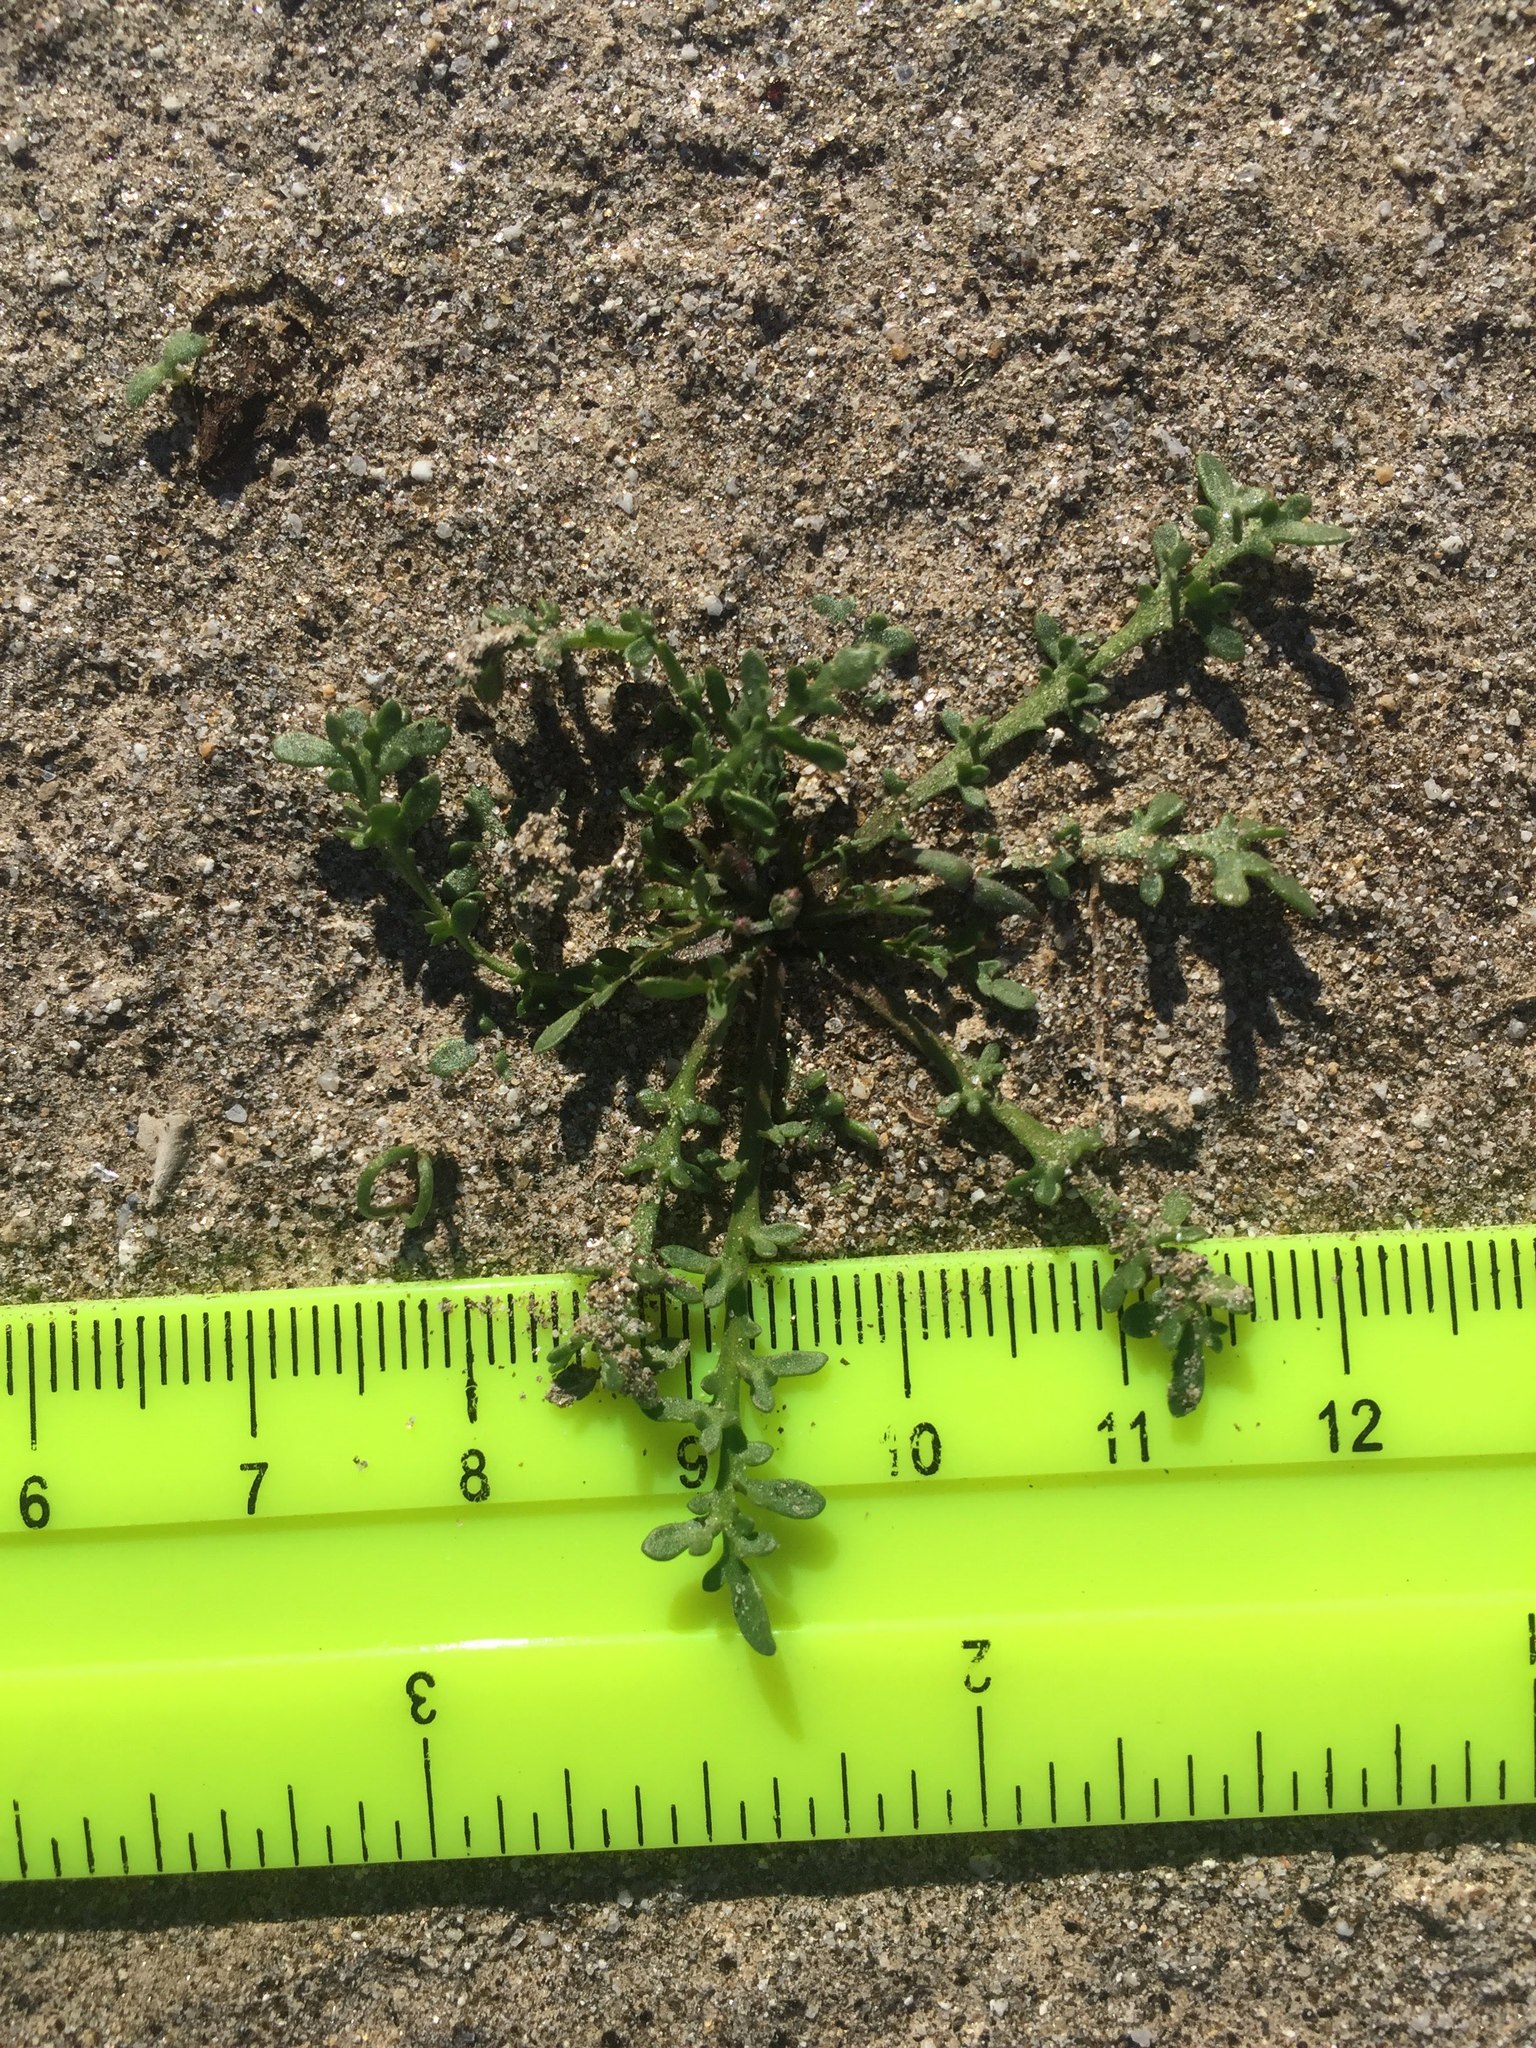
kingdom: Plantae
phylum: Tracheophyta
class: Magnoliopsida
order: Brassicales
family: Brassicaceae
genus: Lepidium
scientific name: Lepidium lasiocarpum
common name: Hairy-pod pepperwort
